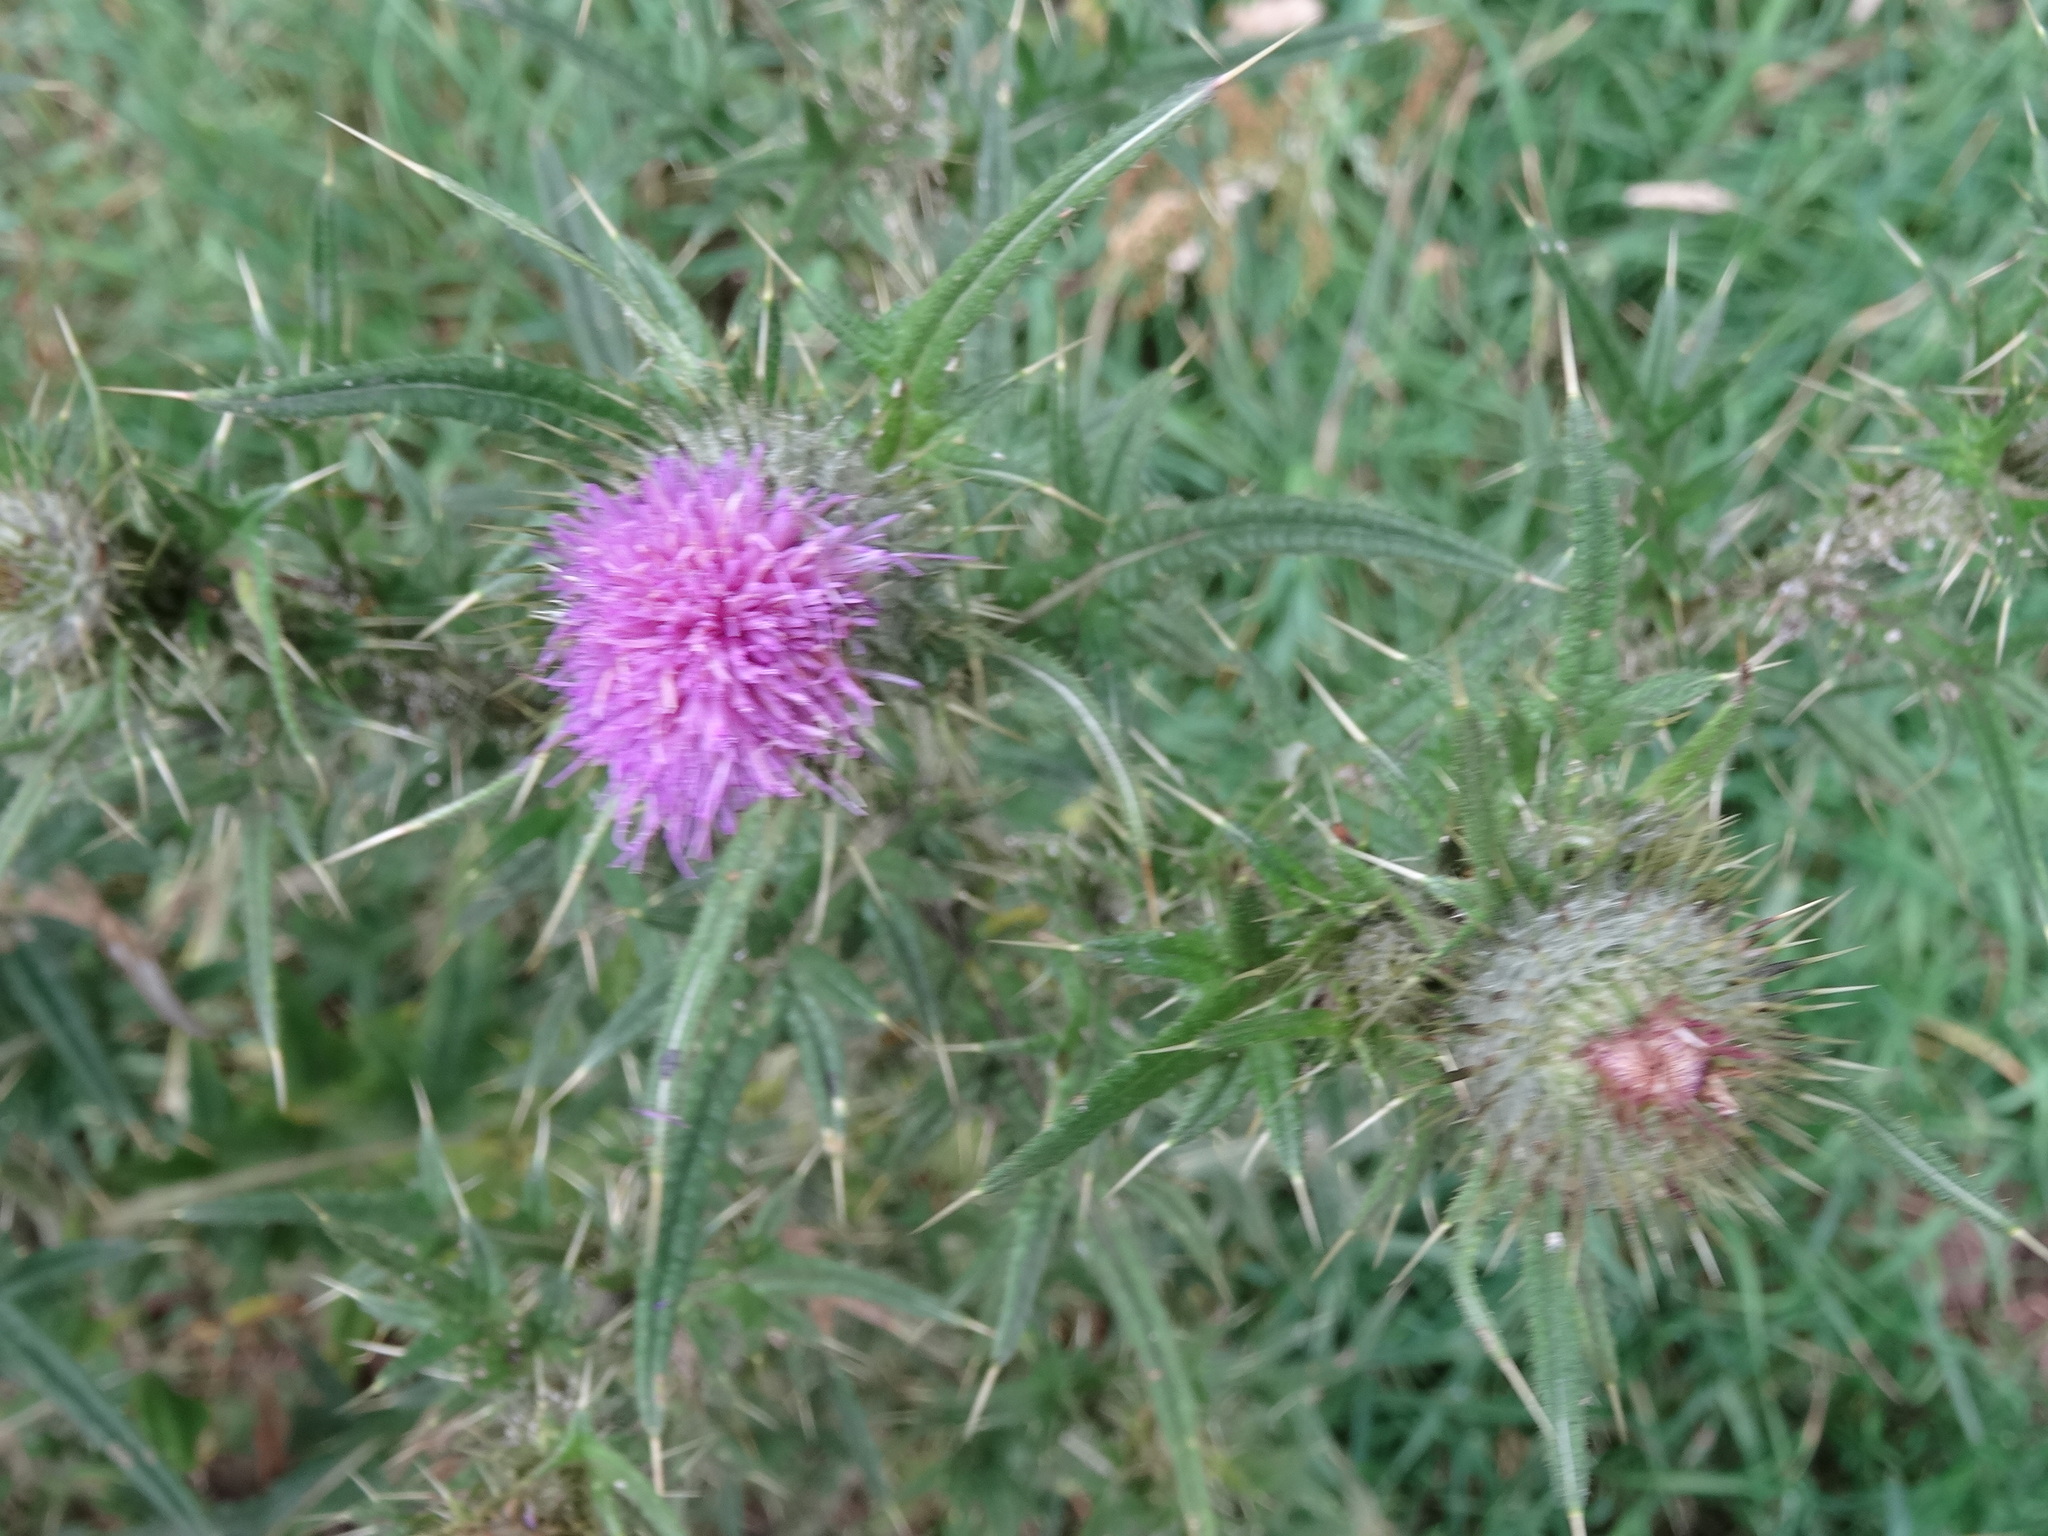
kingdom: Plantae
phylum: Tracheophyta
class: Magnoliopsida
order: Asterales
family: Asteraceae
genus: Cirsium
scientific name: Cirsium vulgare
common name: Bull thistle
